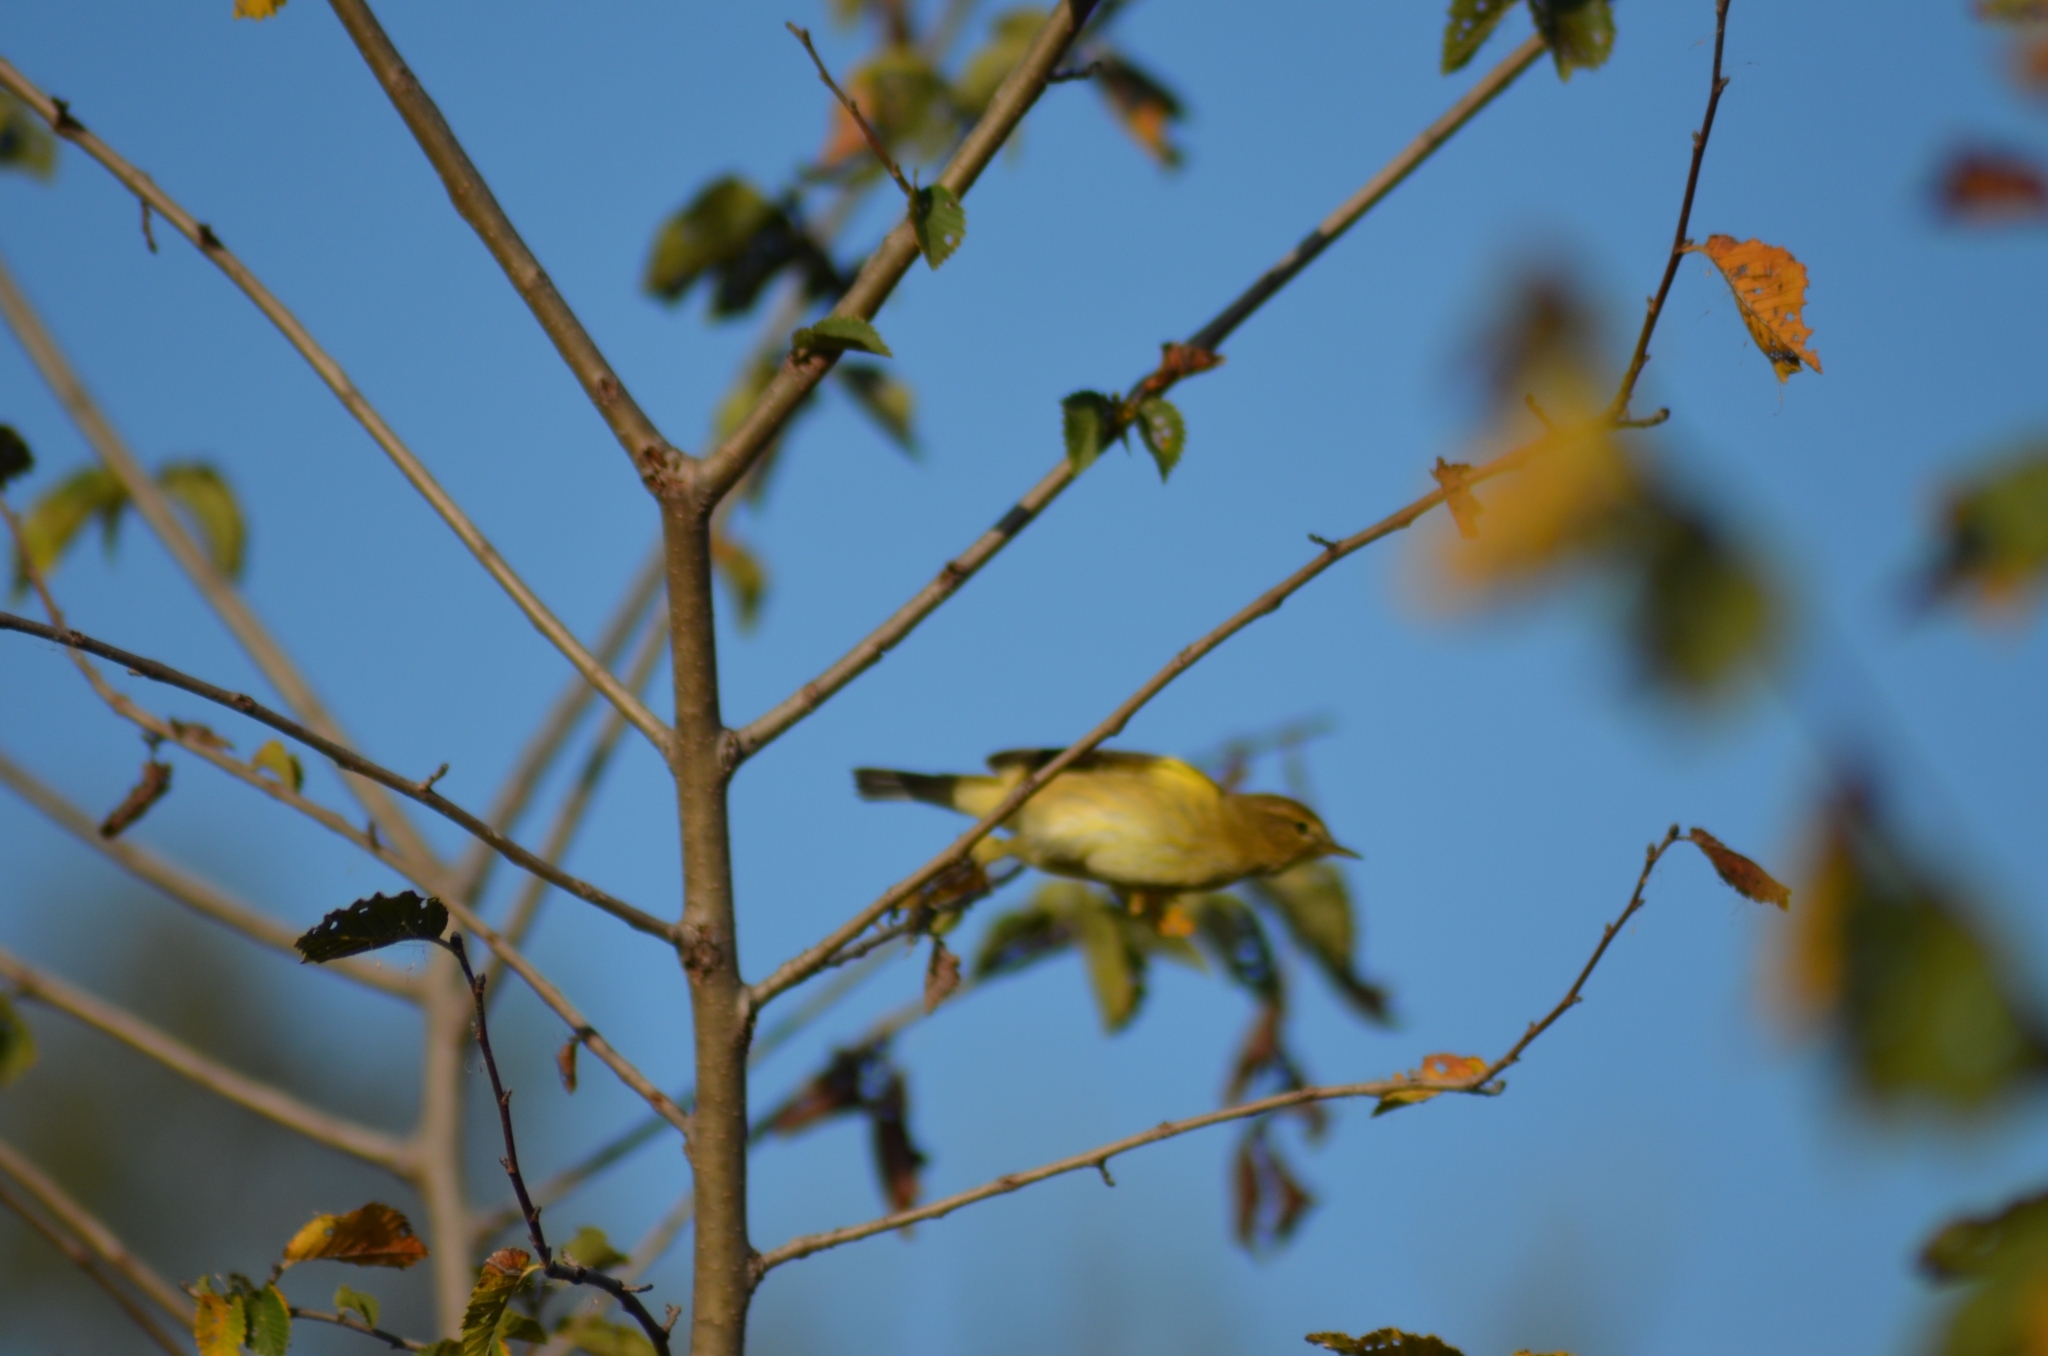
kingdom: Animalia
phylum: Chordata
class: Aves
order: Passeriformes
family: Phylloscopidae
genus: Phylloscopus
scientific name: Phylloscopus collybita
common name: Common chiffchaff
